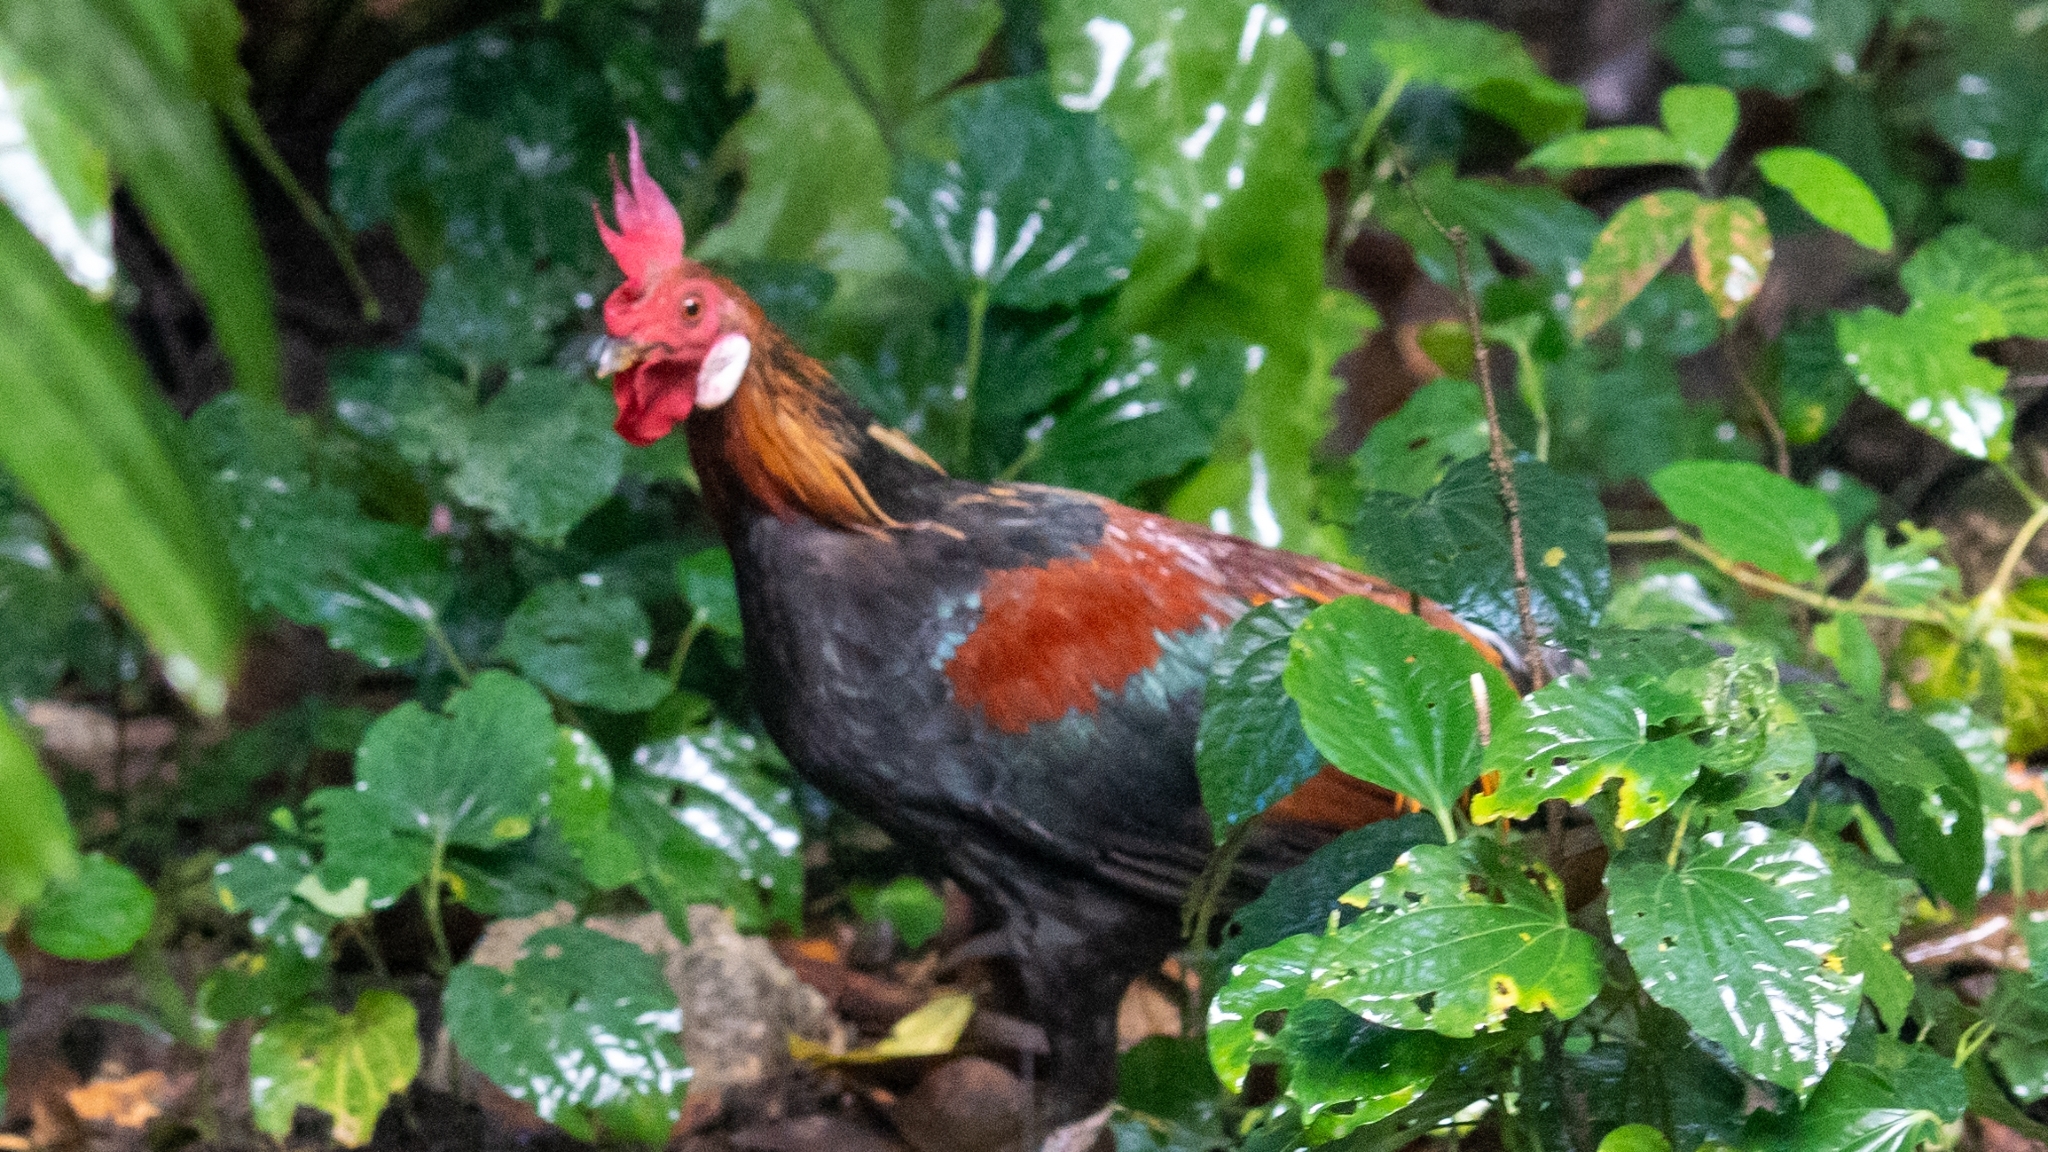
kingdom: Animalia
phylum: Chordata
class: Aves
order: Galliformes
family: Phasianidae
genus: Gallus
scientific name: Gallus gallus
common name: Red junglefowl
